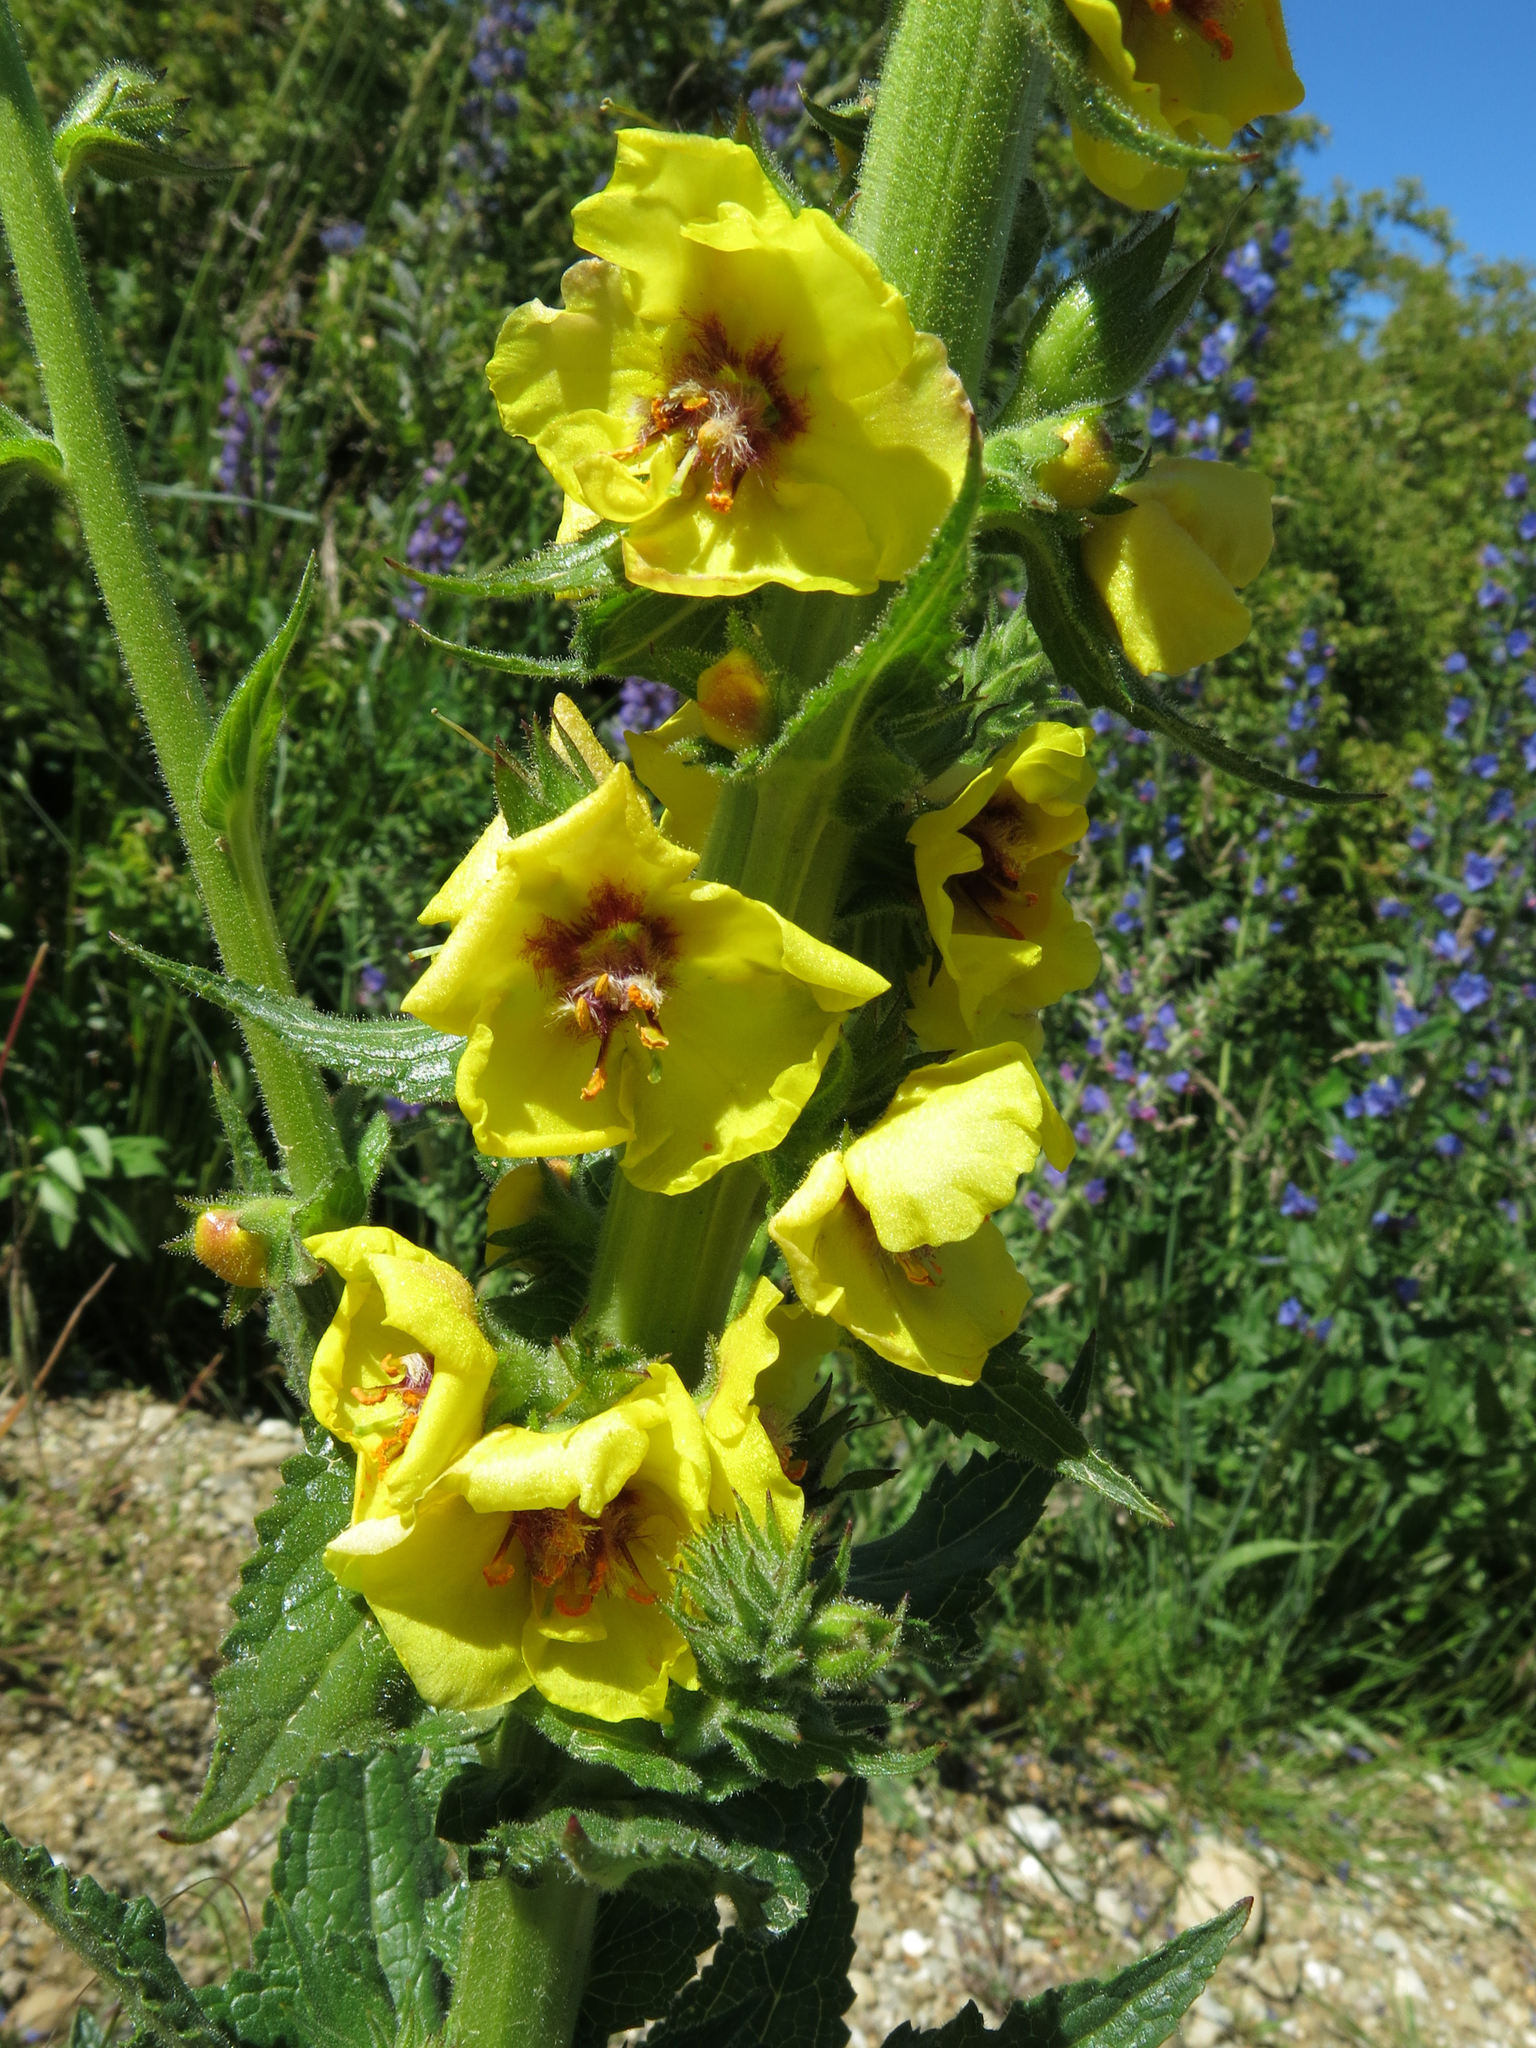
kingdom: Plantae
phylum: Tracheophyta
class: Magnoliopsida
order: Lamiales
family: Scrophulariaceae
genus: Verbascum
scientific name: Verbascum virgatum
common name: Twiggy mullein
